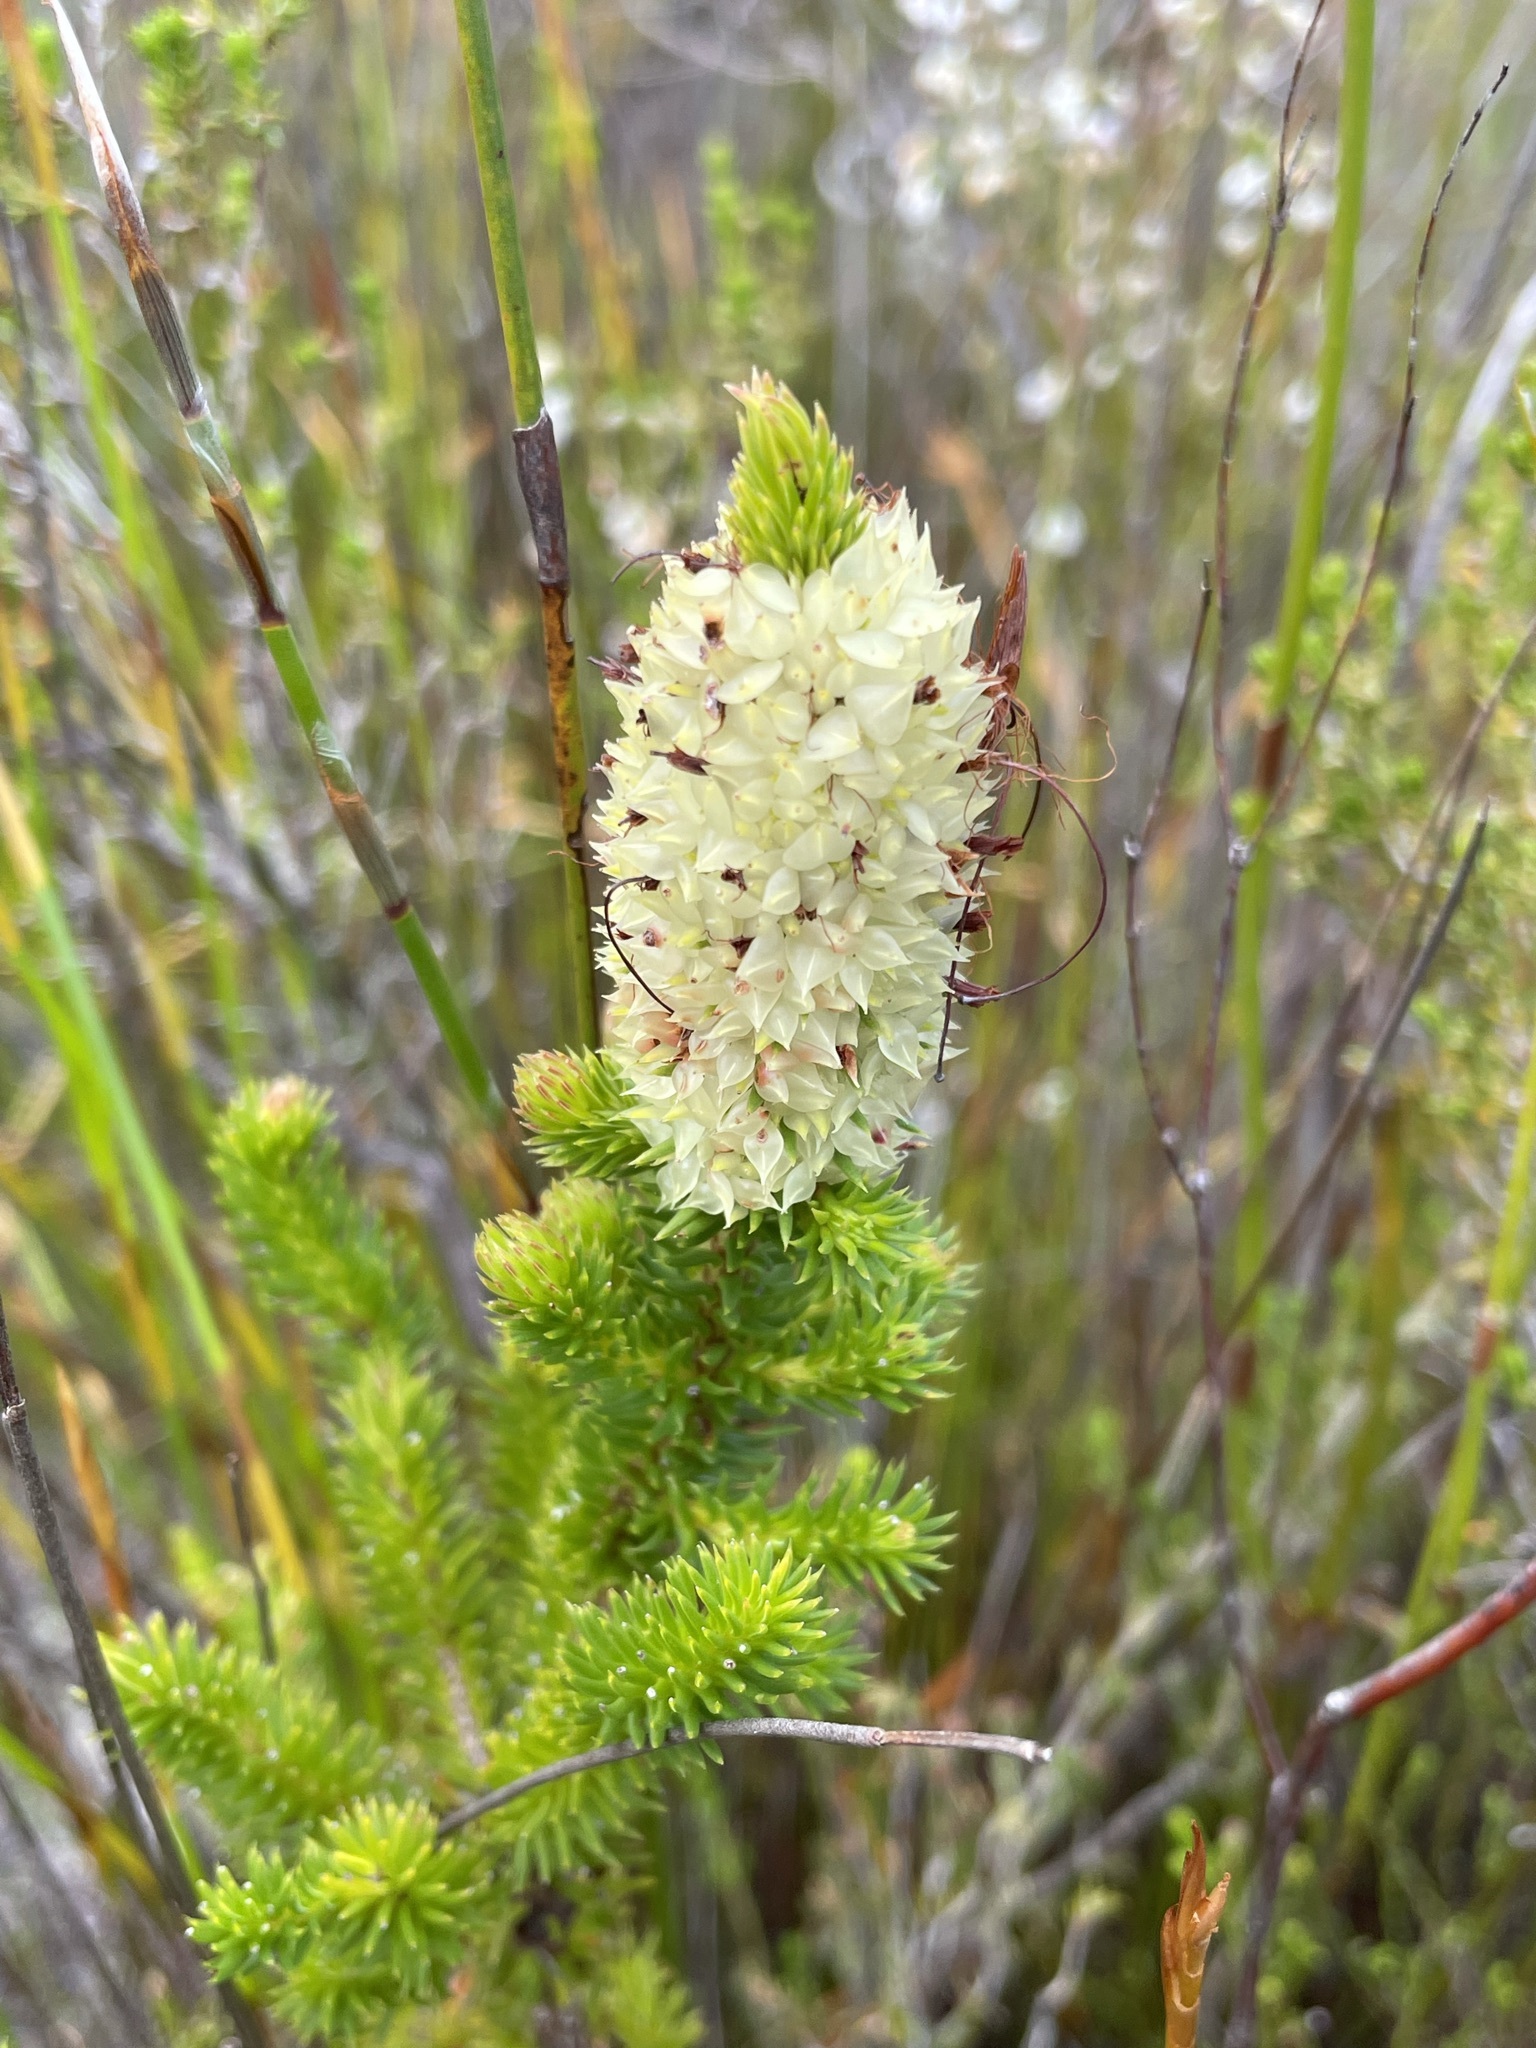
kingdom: Plantae
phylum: Tracheophyta
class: Magnoliopsida
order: Ericales
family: Ericaceae
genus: Erica
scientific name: Erica sessiliflora
